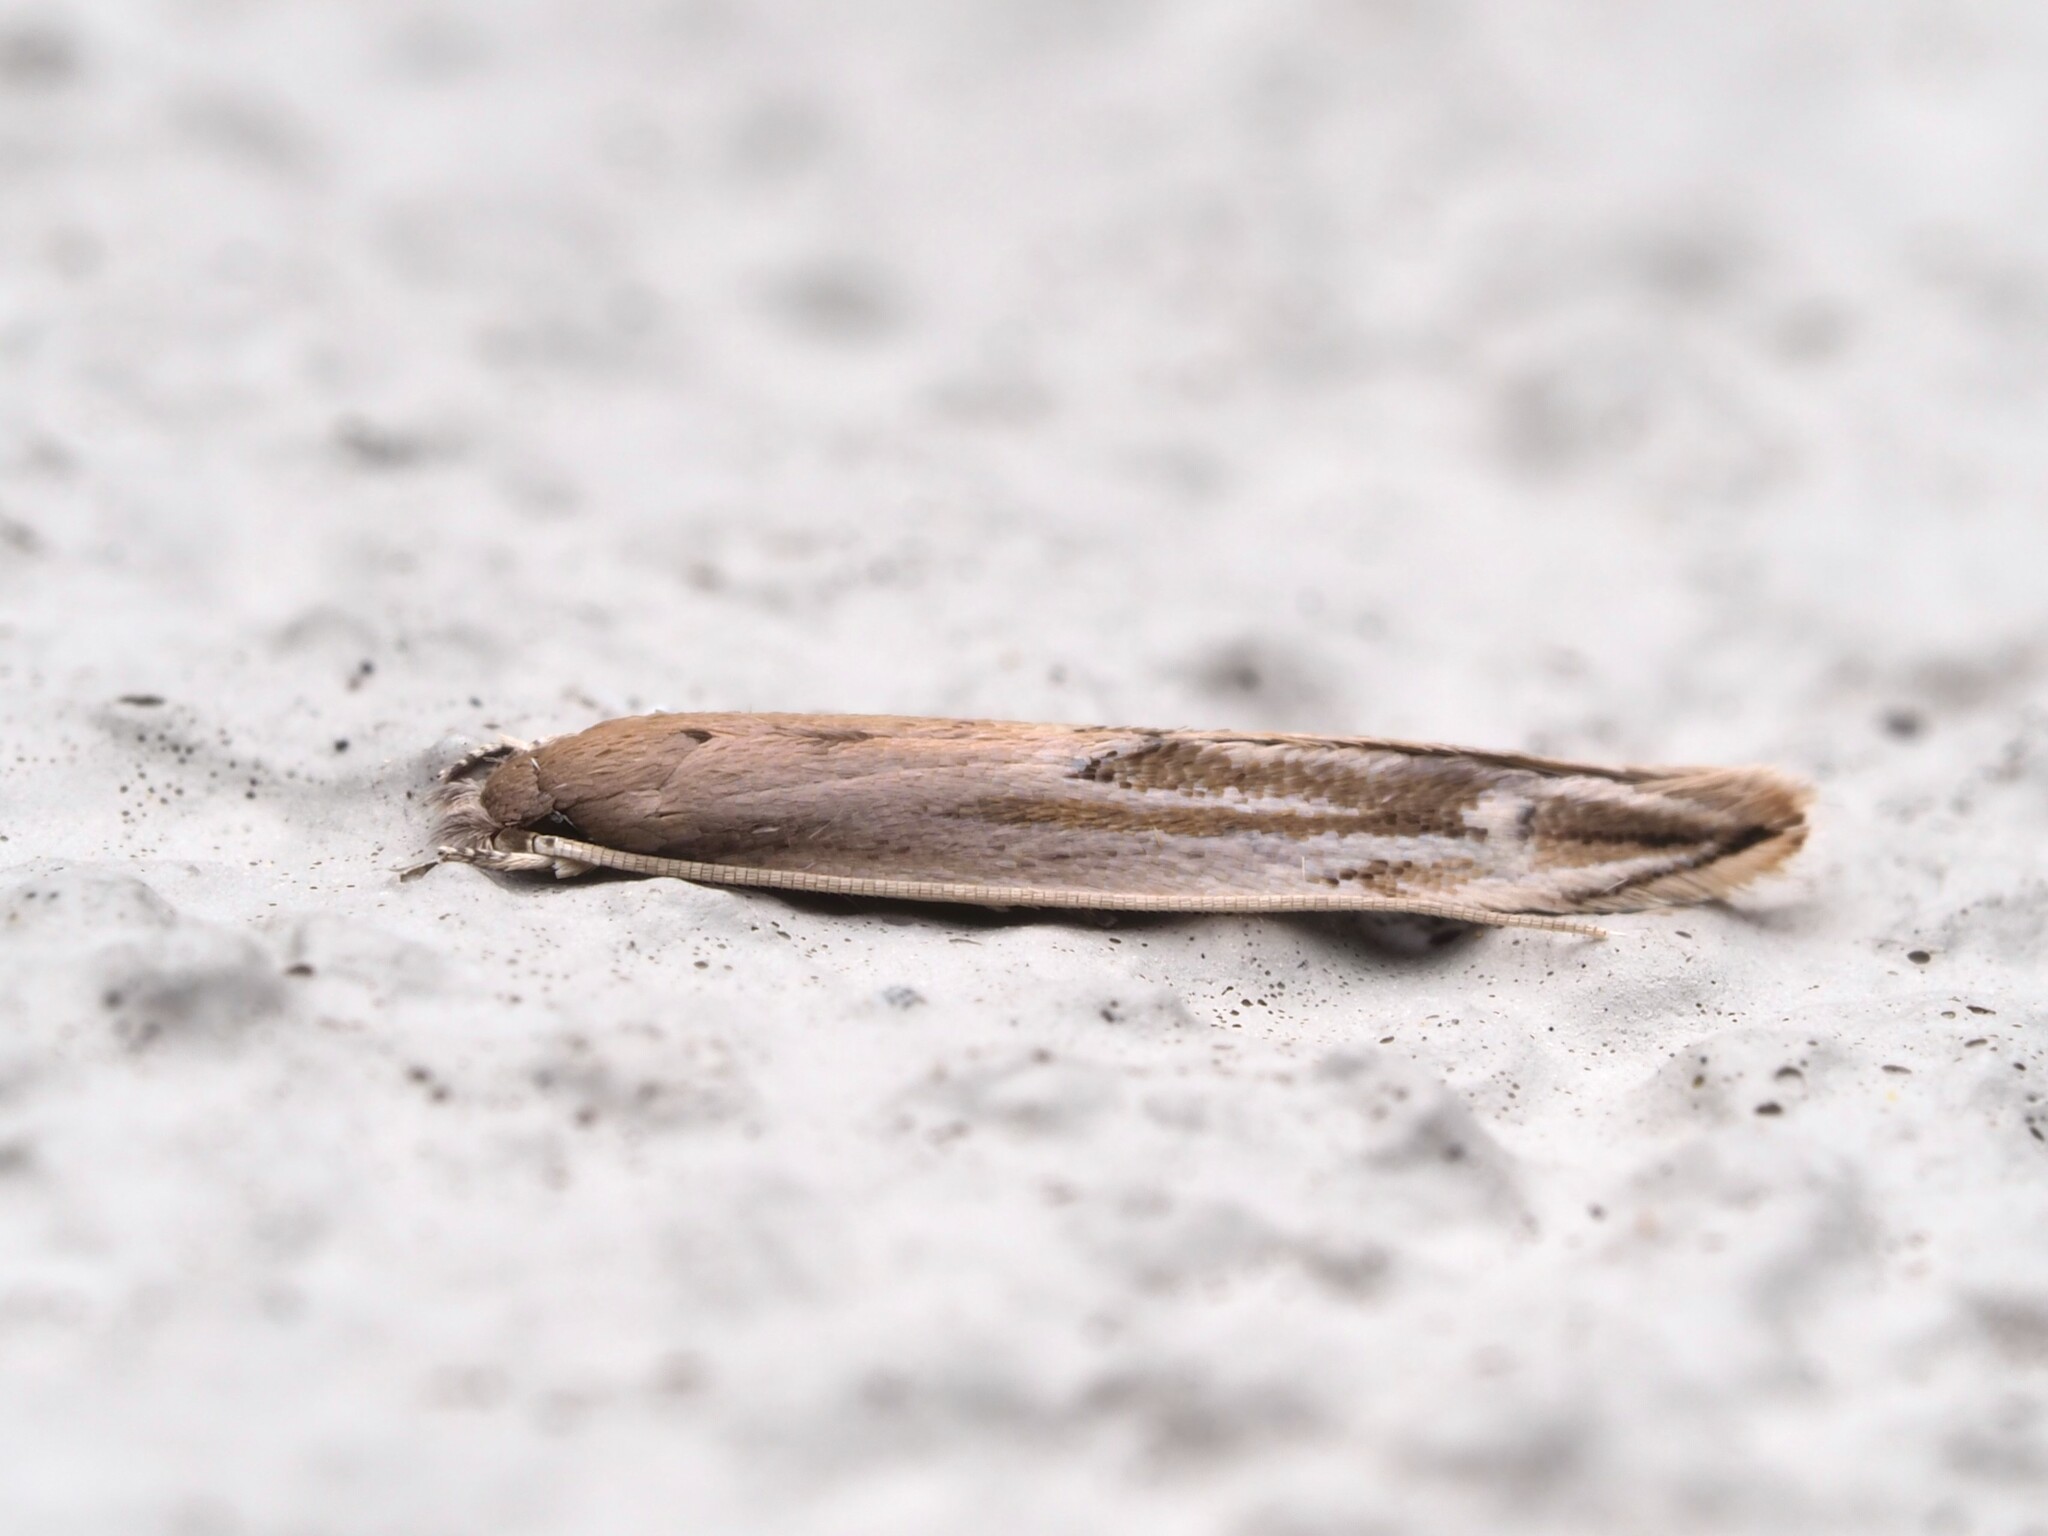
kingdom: Animalia
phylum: Arthropoda
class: Insecta
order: Lepidoptera
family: Tineidae
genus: Amphixystis
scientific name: Amphixystis hapsimacha
